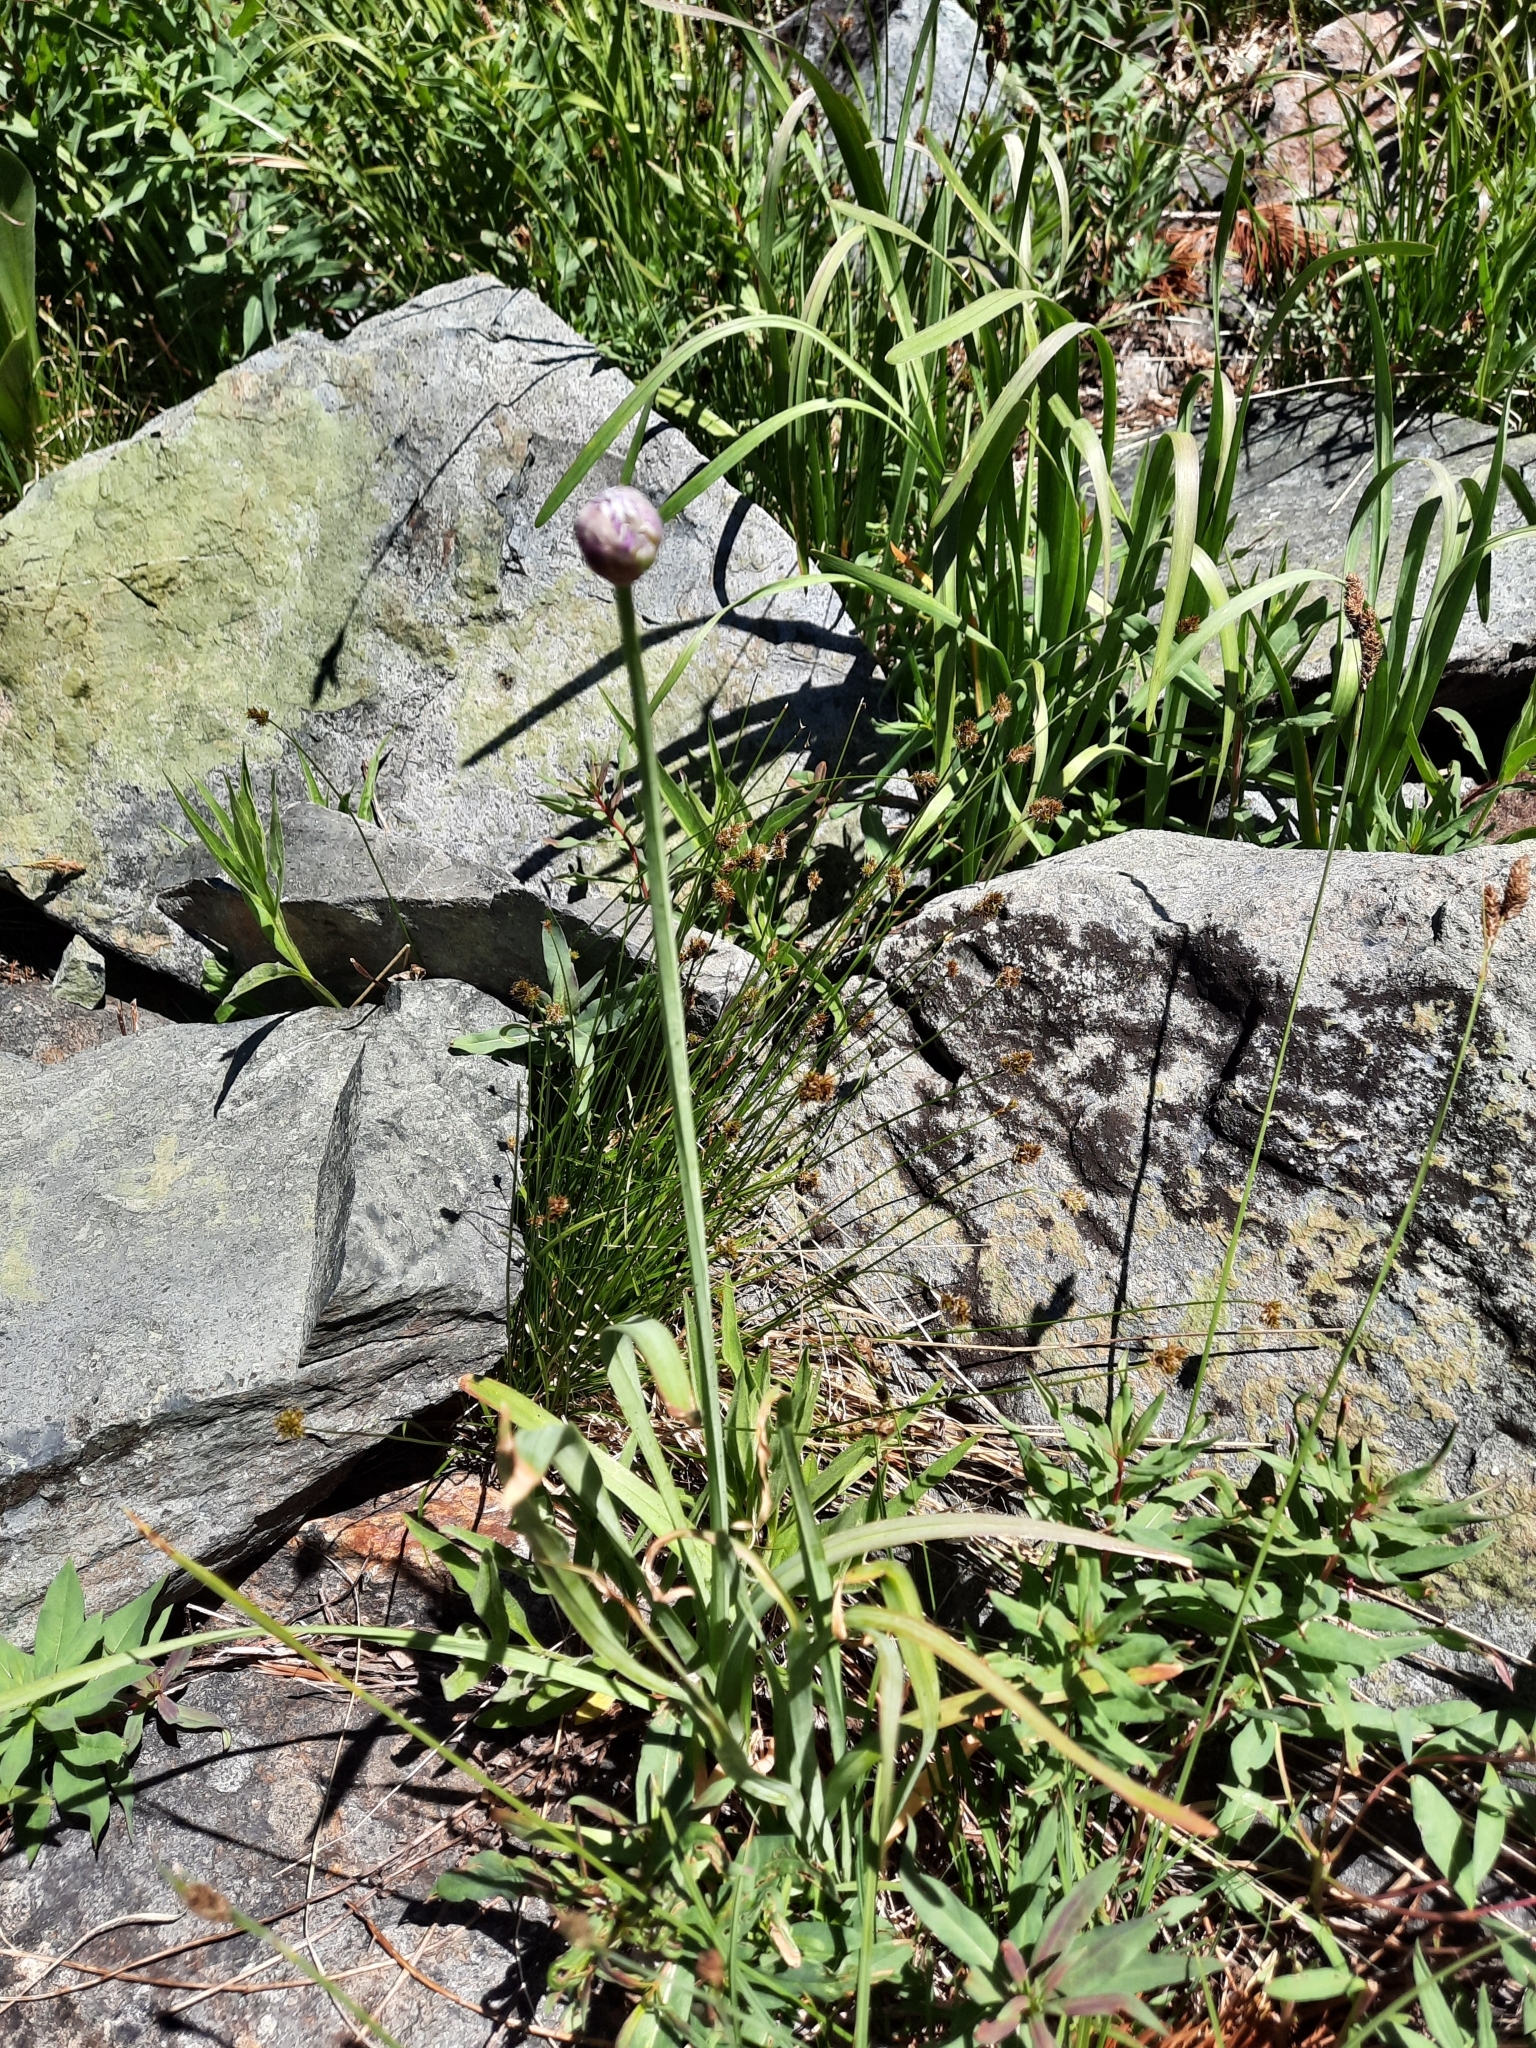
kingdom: Plantae
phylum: Tracheophyta
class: Liliopsida
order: Asparagales
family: Amaryllidaceae
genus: Allium
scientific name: Allium validum
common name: Pacific mountain onion
